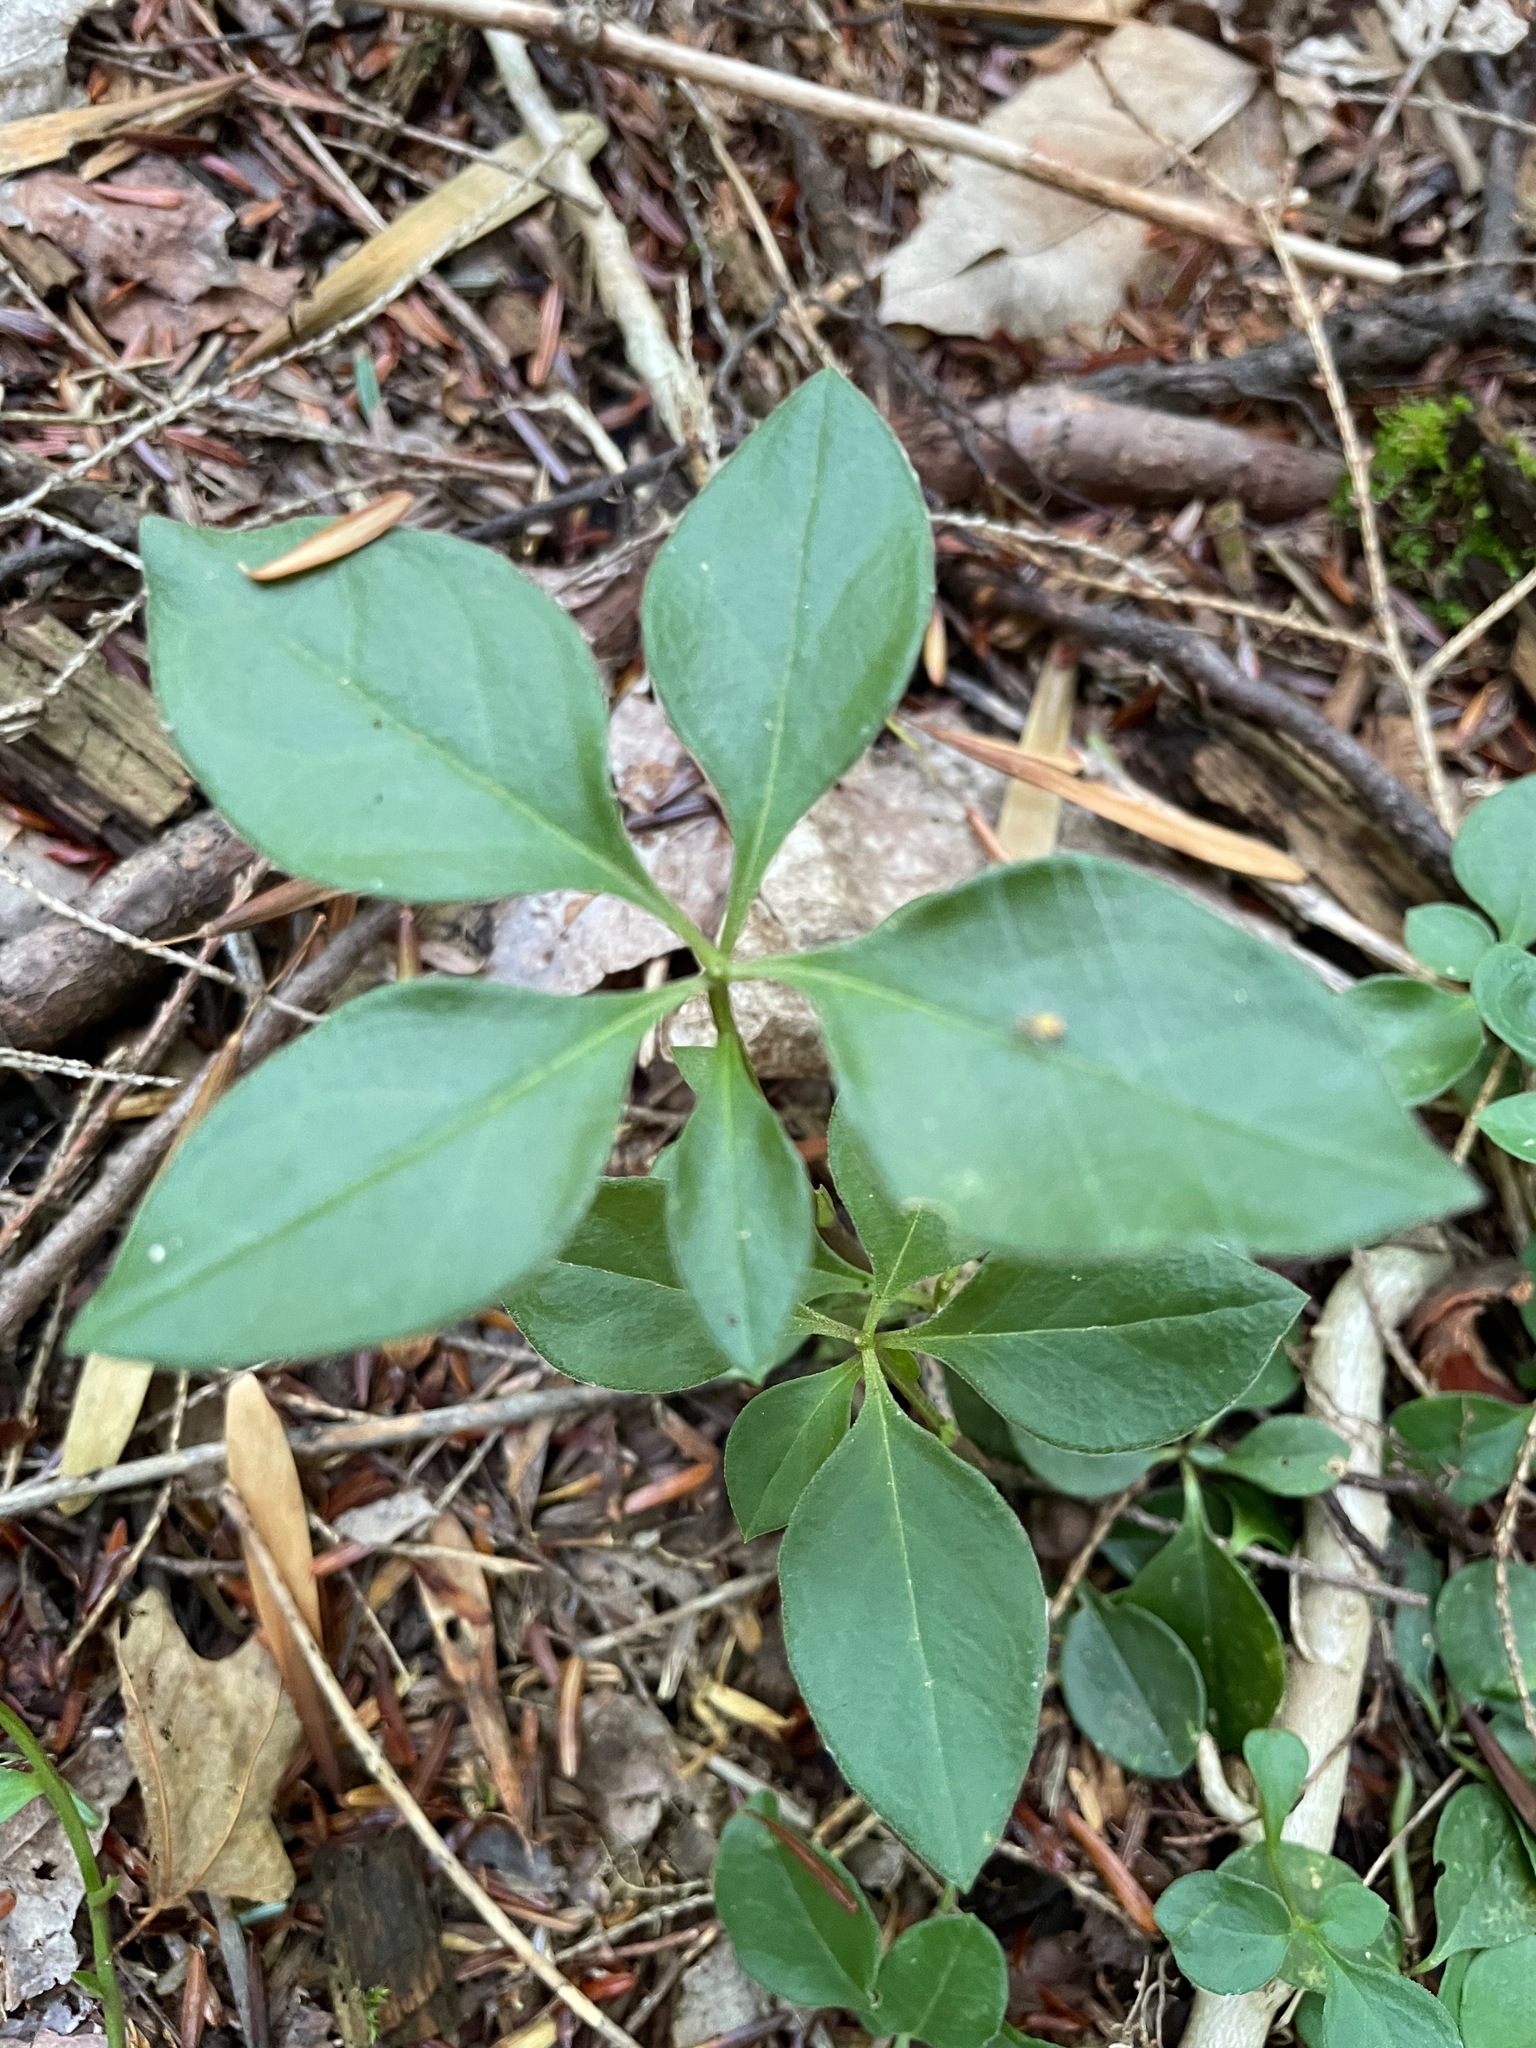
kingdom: Plantae
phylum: Tracheophyta
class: Magnoliopsida
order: Fabales
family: Polygalaceae
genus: Polygaloides
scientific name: Polygaloides paucifolia
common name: Bird-on-the-wing
